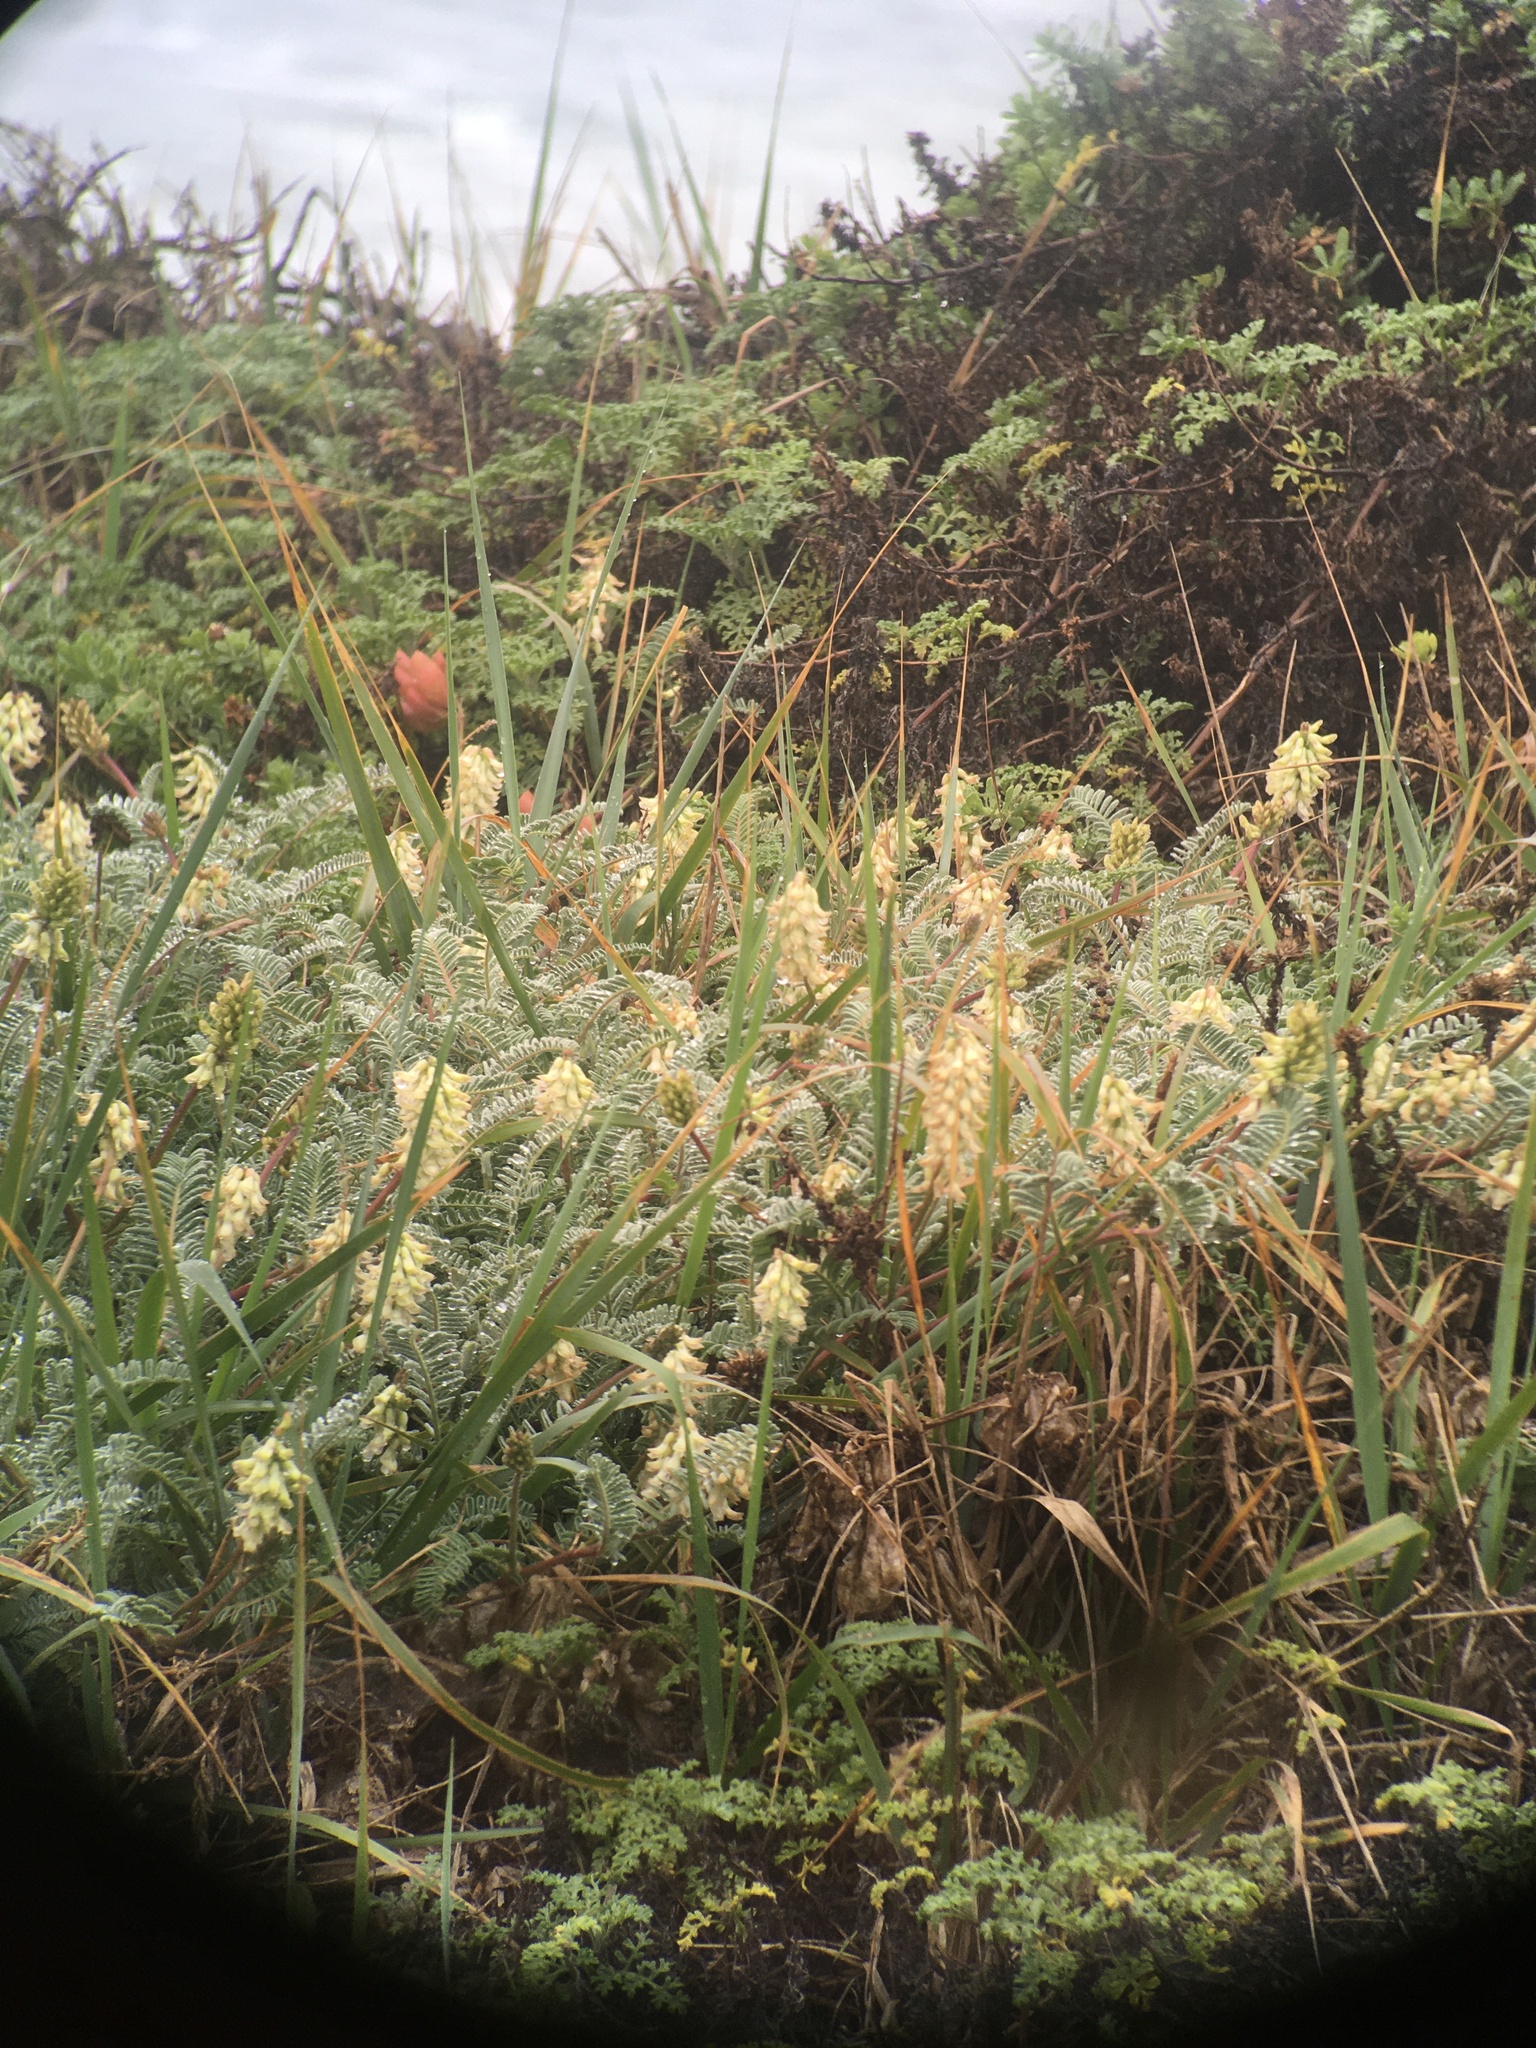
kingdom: Plantae
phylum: Tracheophyta
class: Magnoliopsida
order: Fabales
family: Fabaceae
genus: Astragalus
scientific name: Astragalus nuttallii
